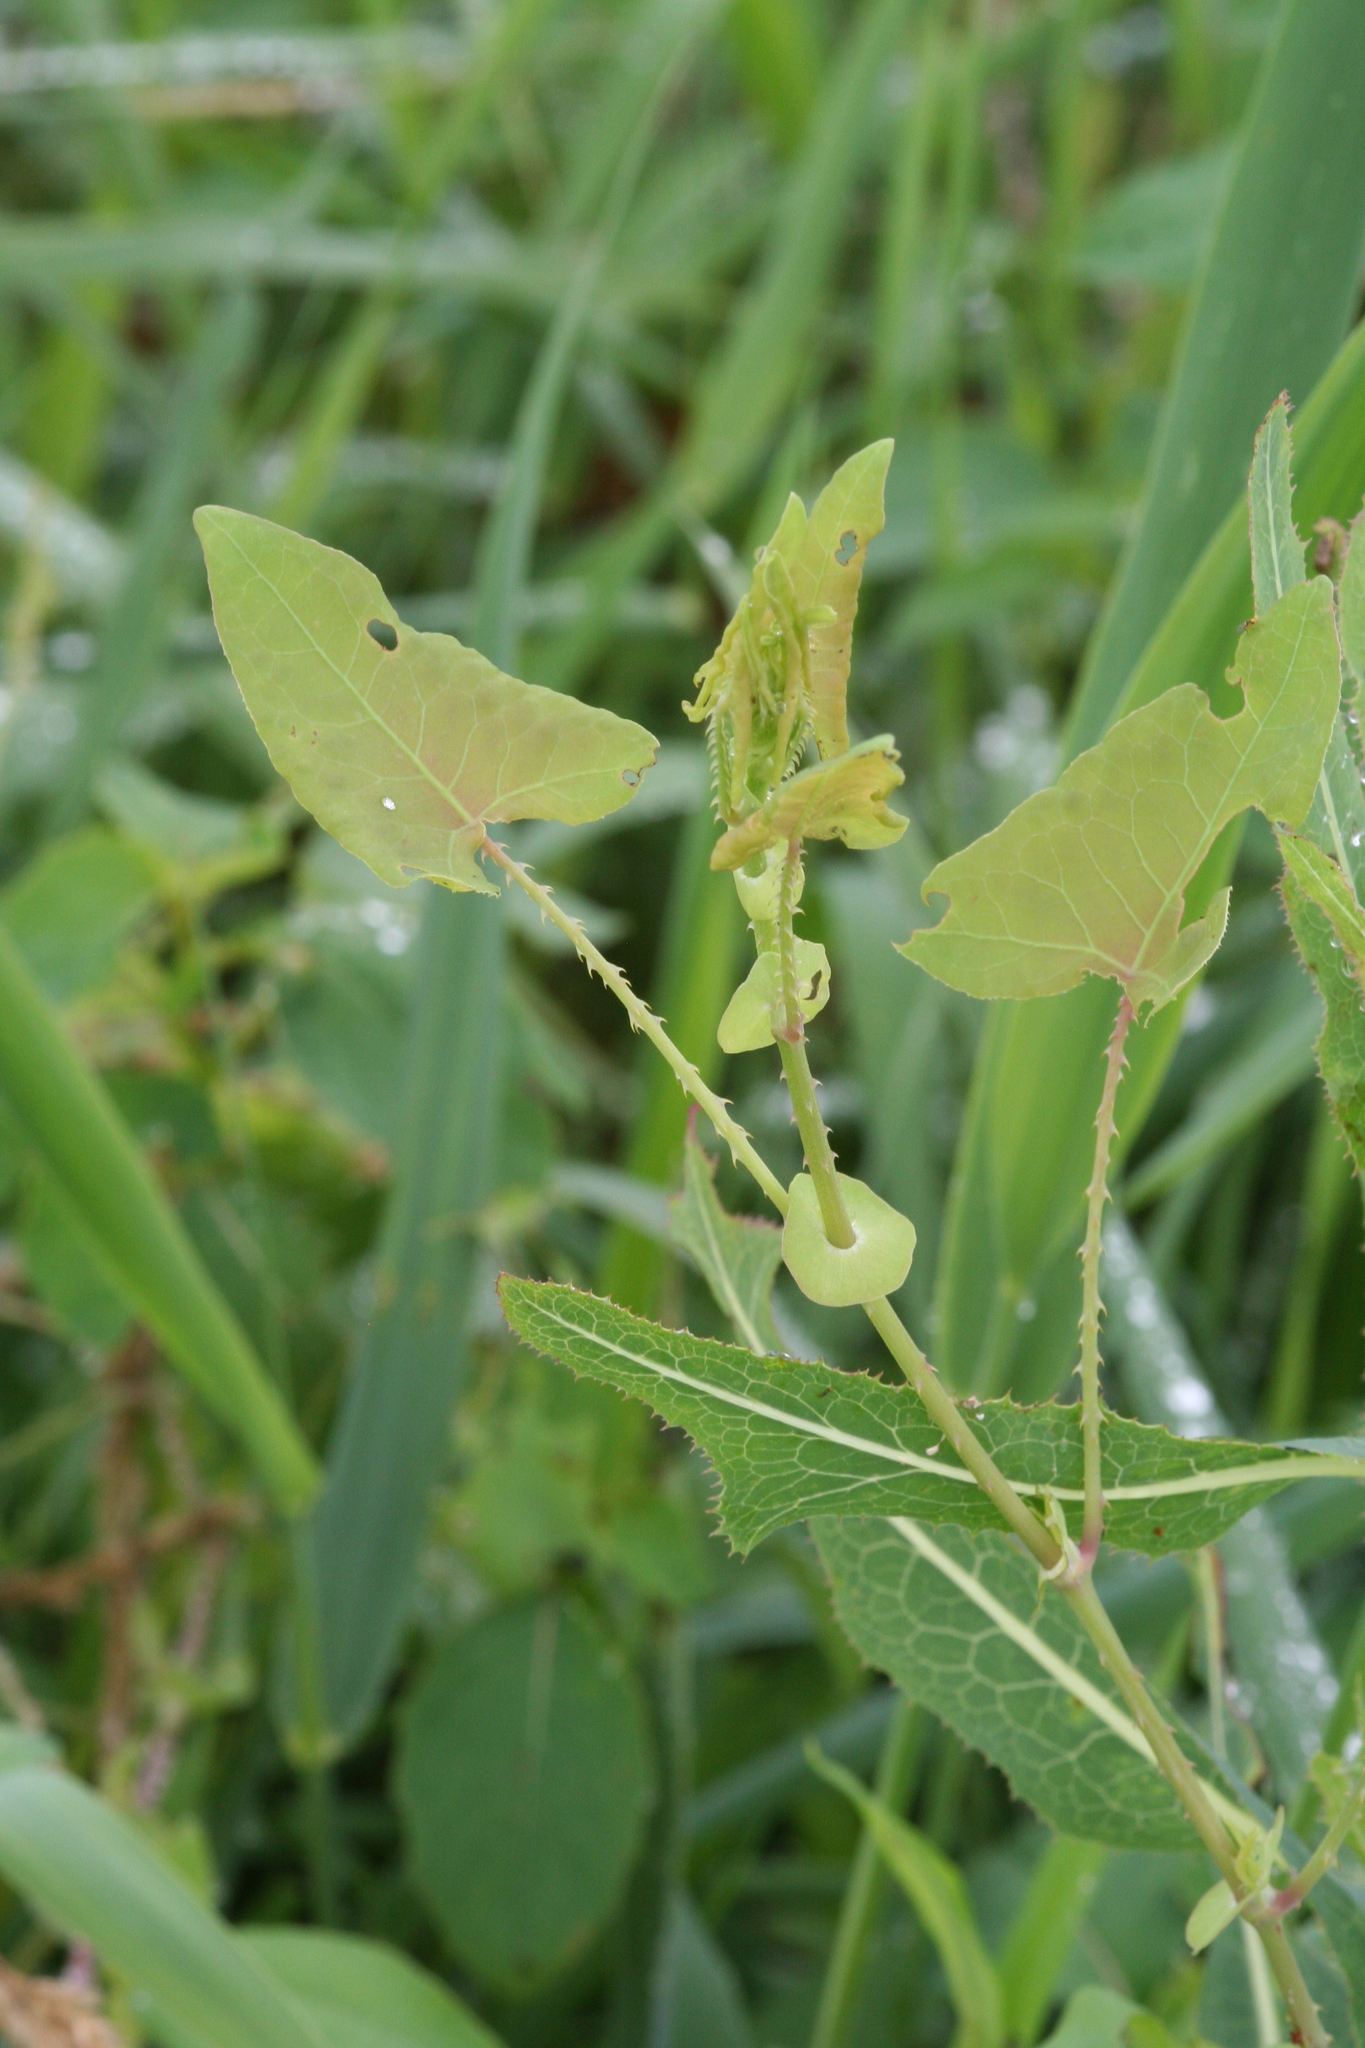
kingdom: Plantae
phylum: Tracheophyta
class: Magnoliopsida
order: Caryophyllales
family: Polygonaceae
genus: Persicaria
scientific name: Persicaria perfoliata
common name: Asiatic tearthumb
